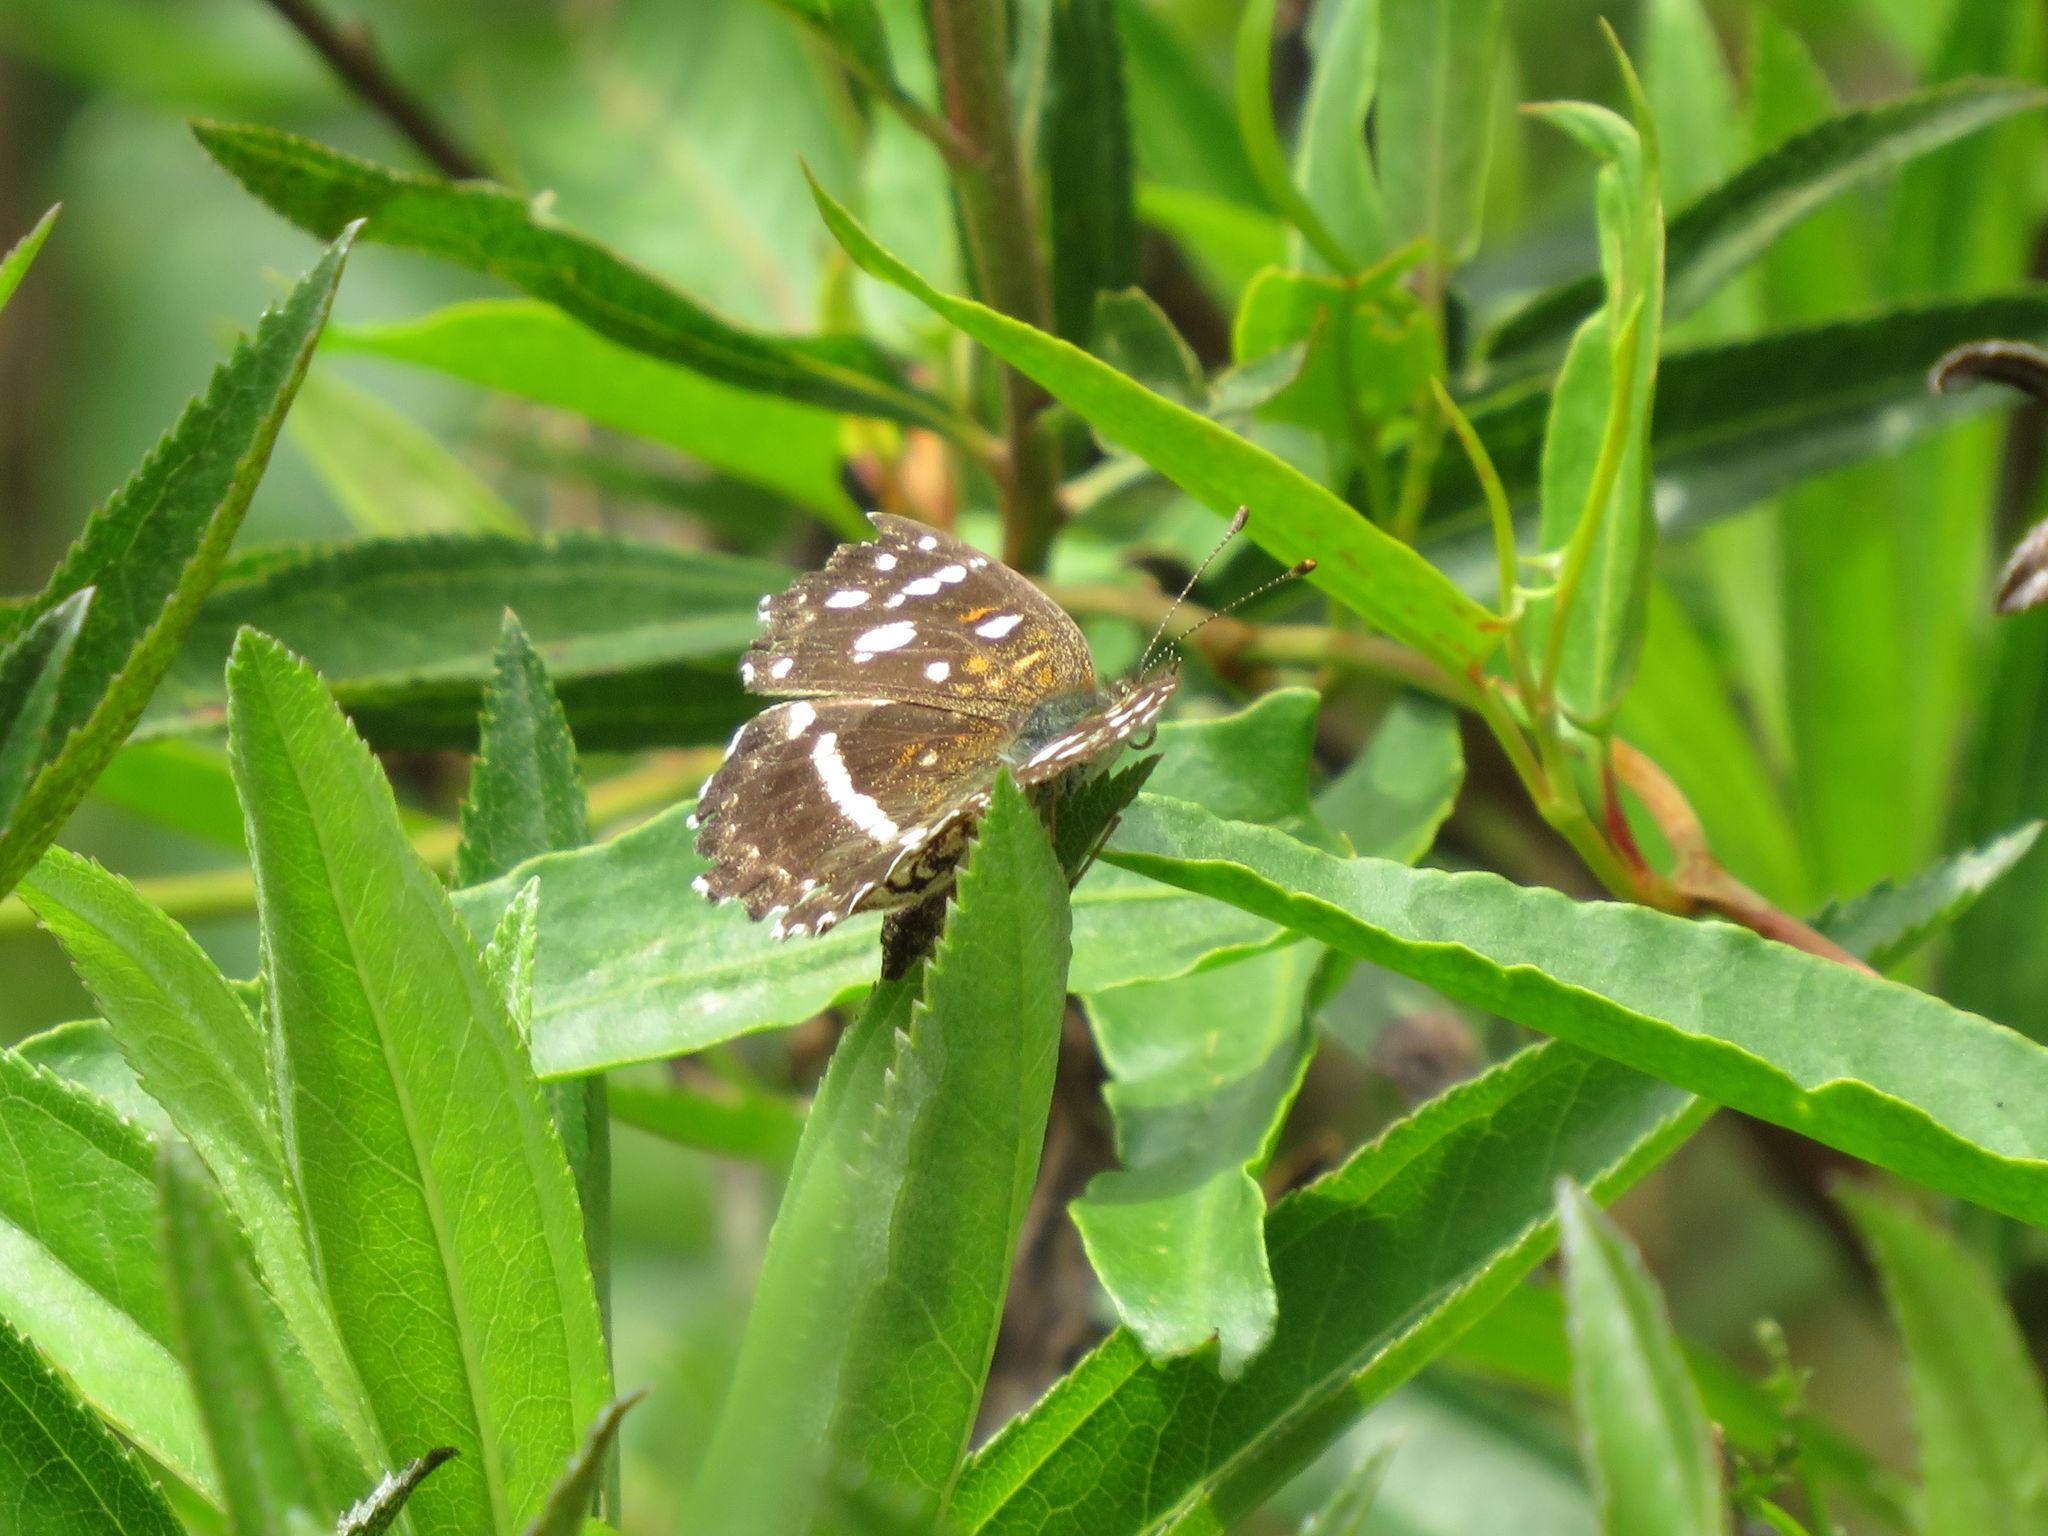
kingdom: Animalia
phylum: Arthropoda
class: Insecta
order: Lepidoptera
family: Nymphalidae
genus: Ortilia
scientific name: Ortilia ithra
